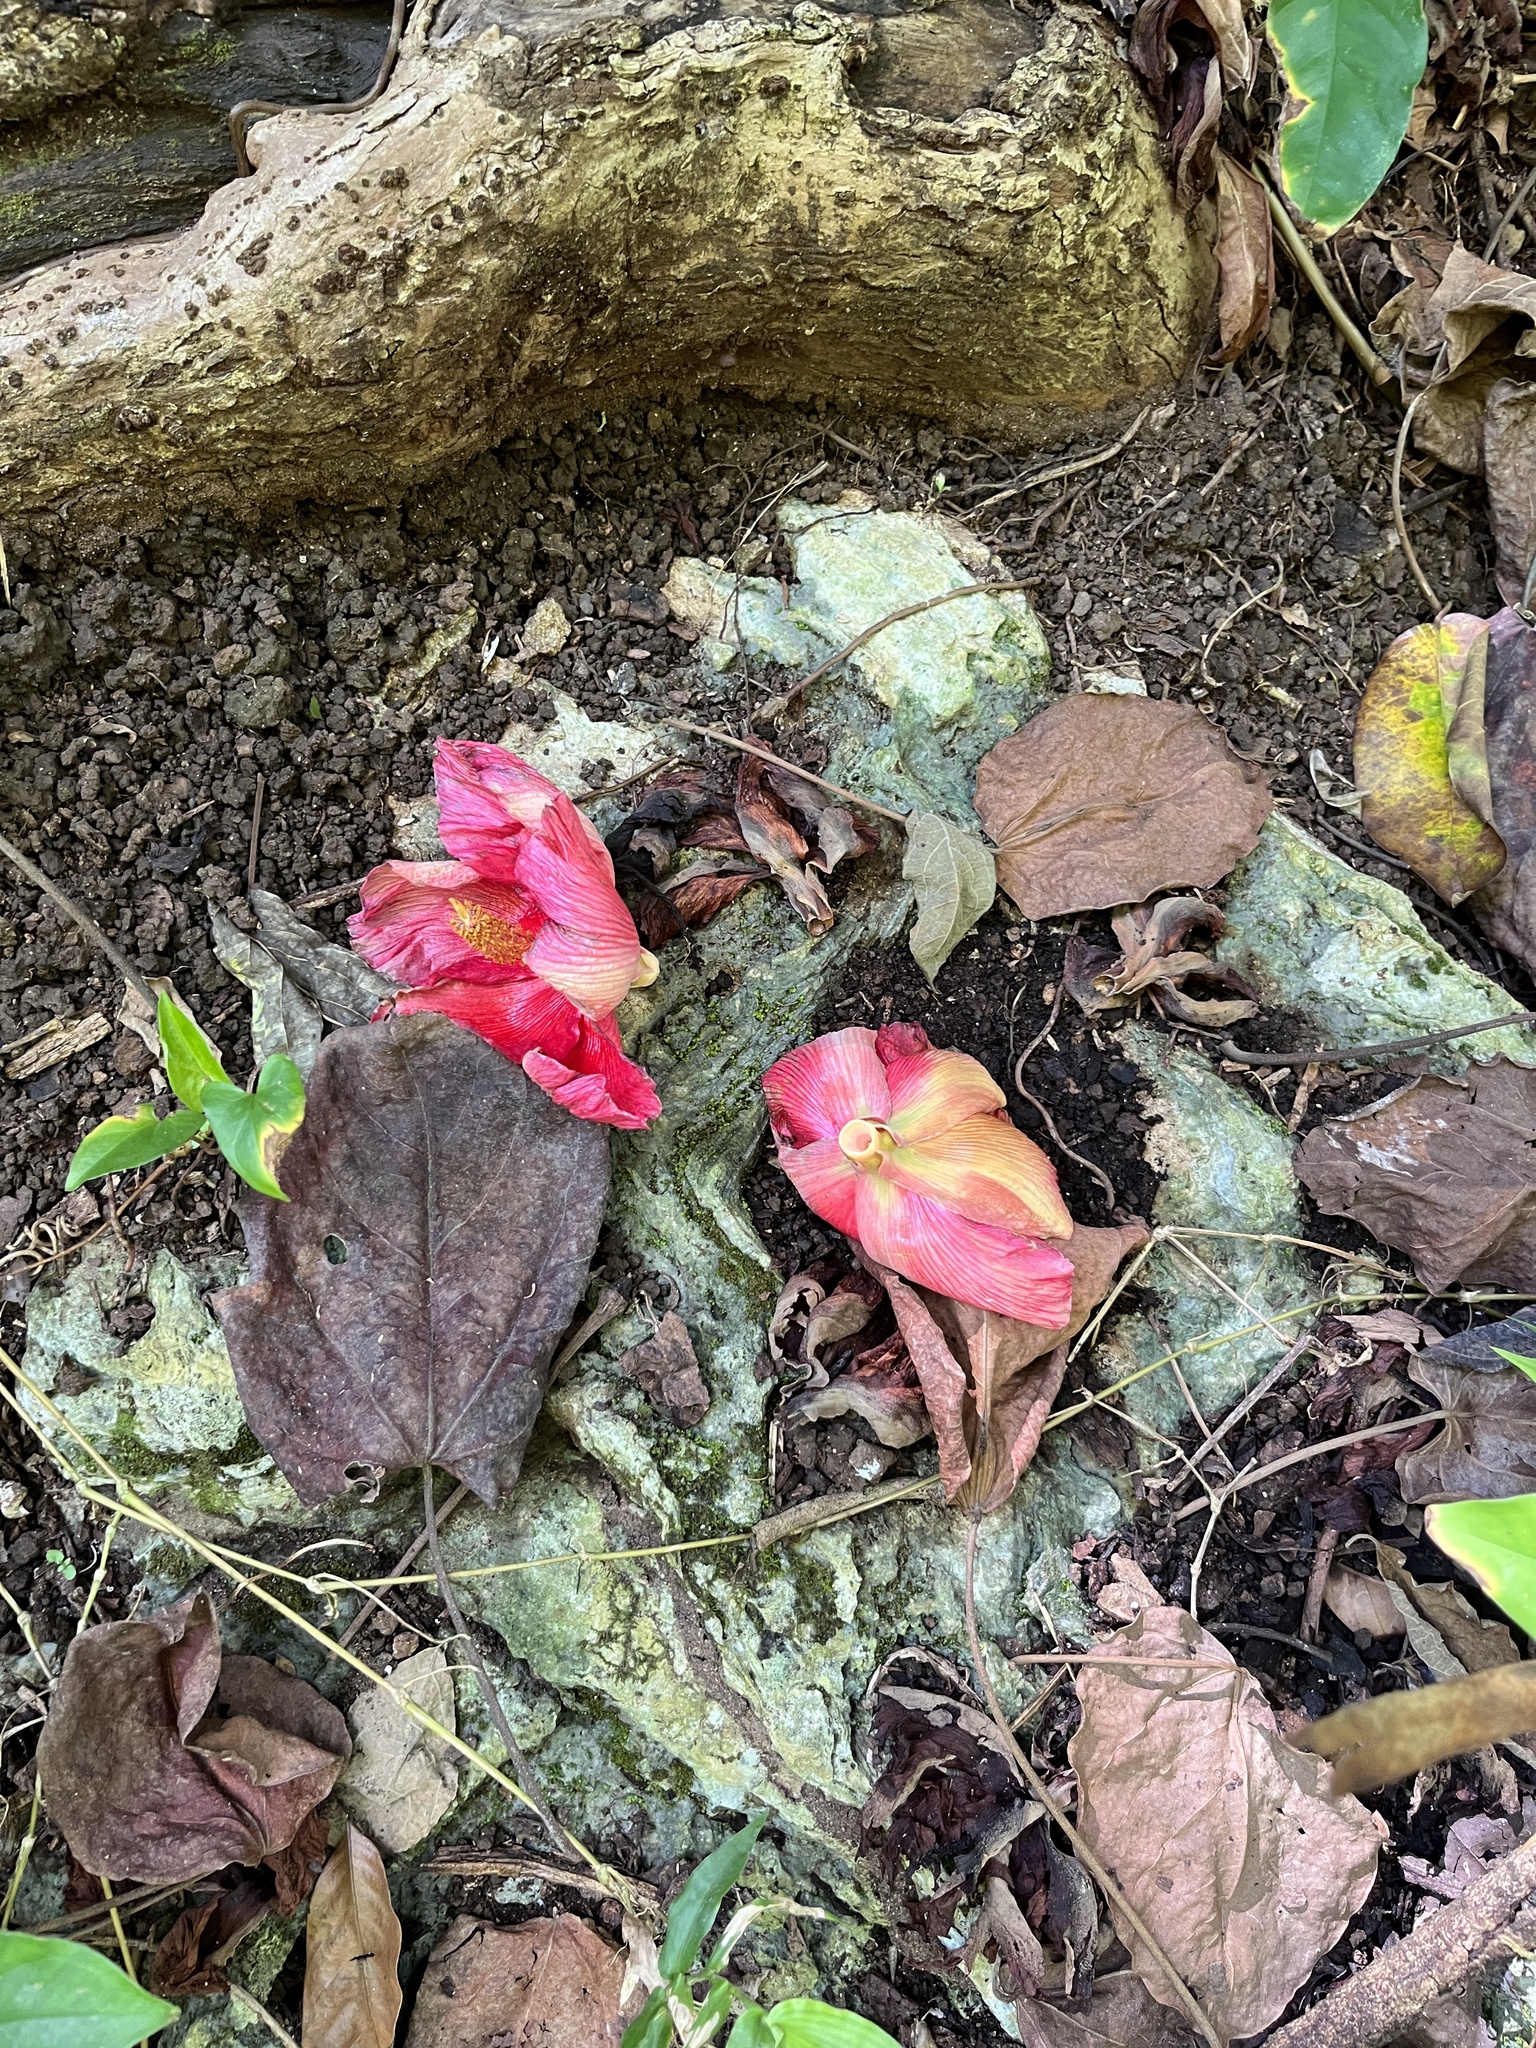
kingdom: Plantae
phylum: Tracheophyta
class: Magnoliopsida
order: Malvales
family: Malvaceae
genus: Thespesia
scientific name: Thespesia grandiflora
